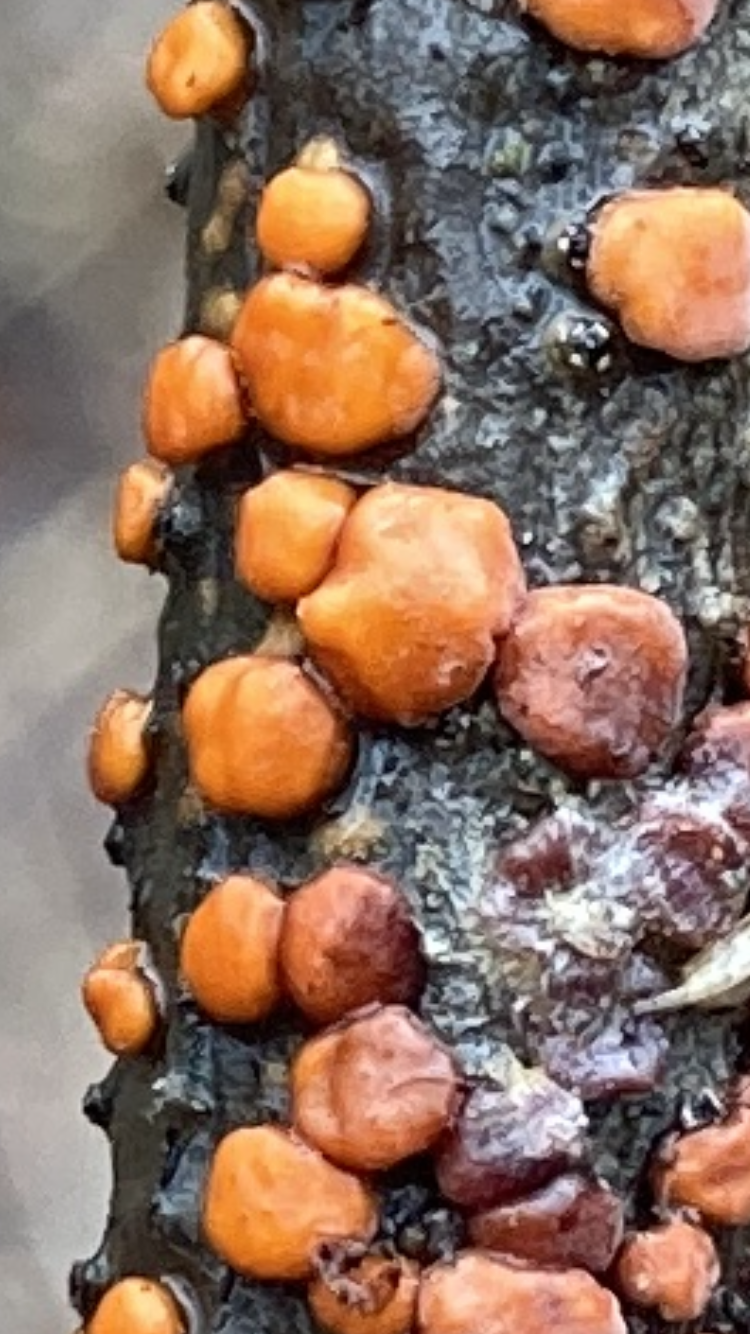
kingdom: Fungi
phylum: Basidiomycota
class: Agaricomycetes
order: Russulales
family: Peniophoraceae
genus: Peniophora
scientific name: Peniophora rufa
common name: Red tree brain fungus
